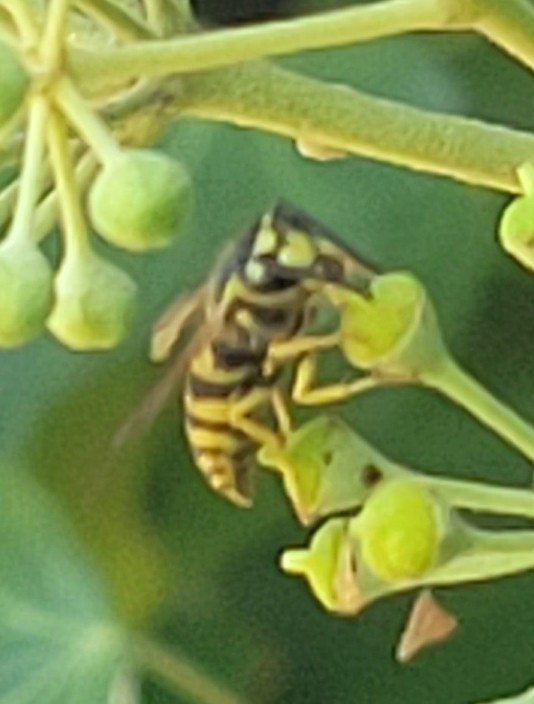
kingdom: Animalia
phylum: Arthropoda
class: Insecta
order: Hymenoptera
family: Vespidae
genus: Vespula
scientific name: Vespula maculifrons
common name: Eastern yellowjacket
